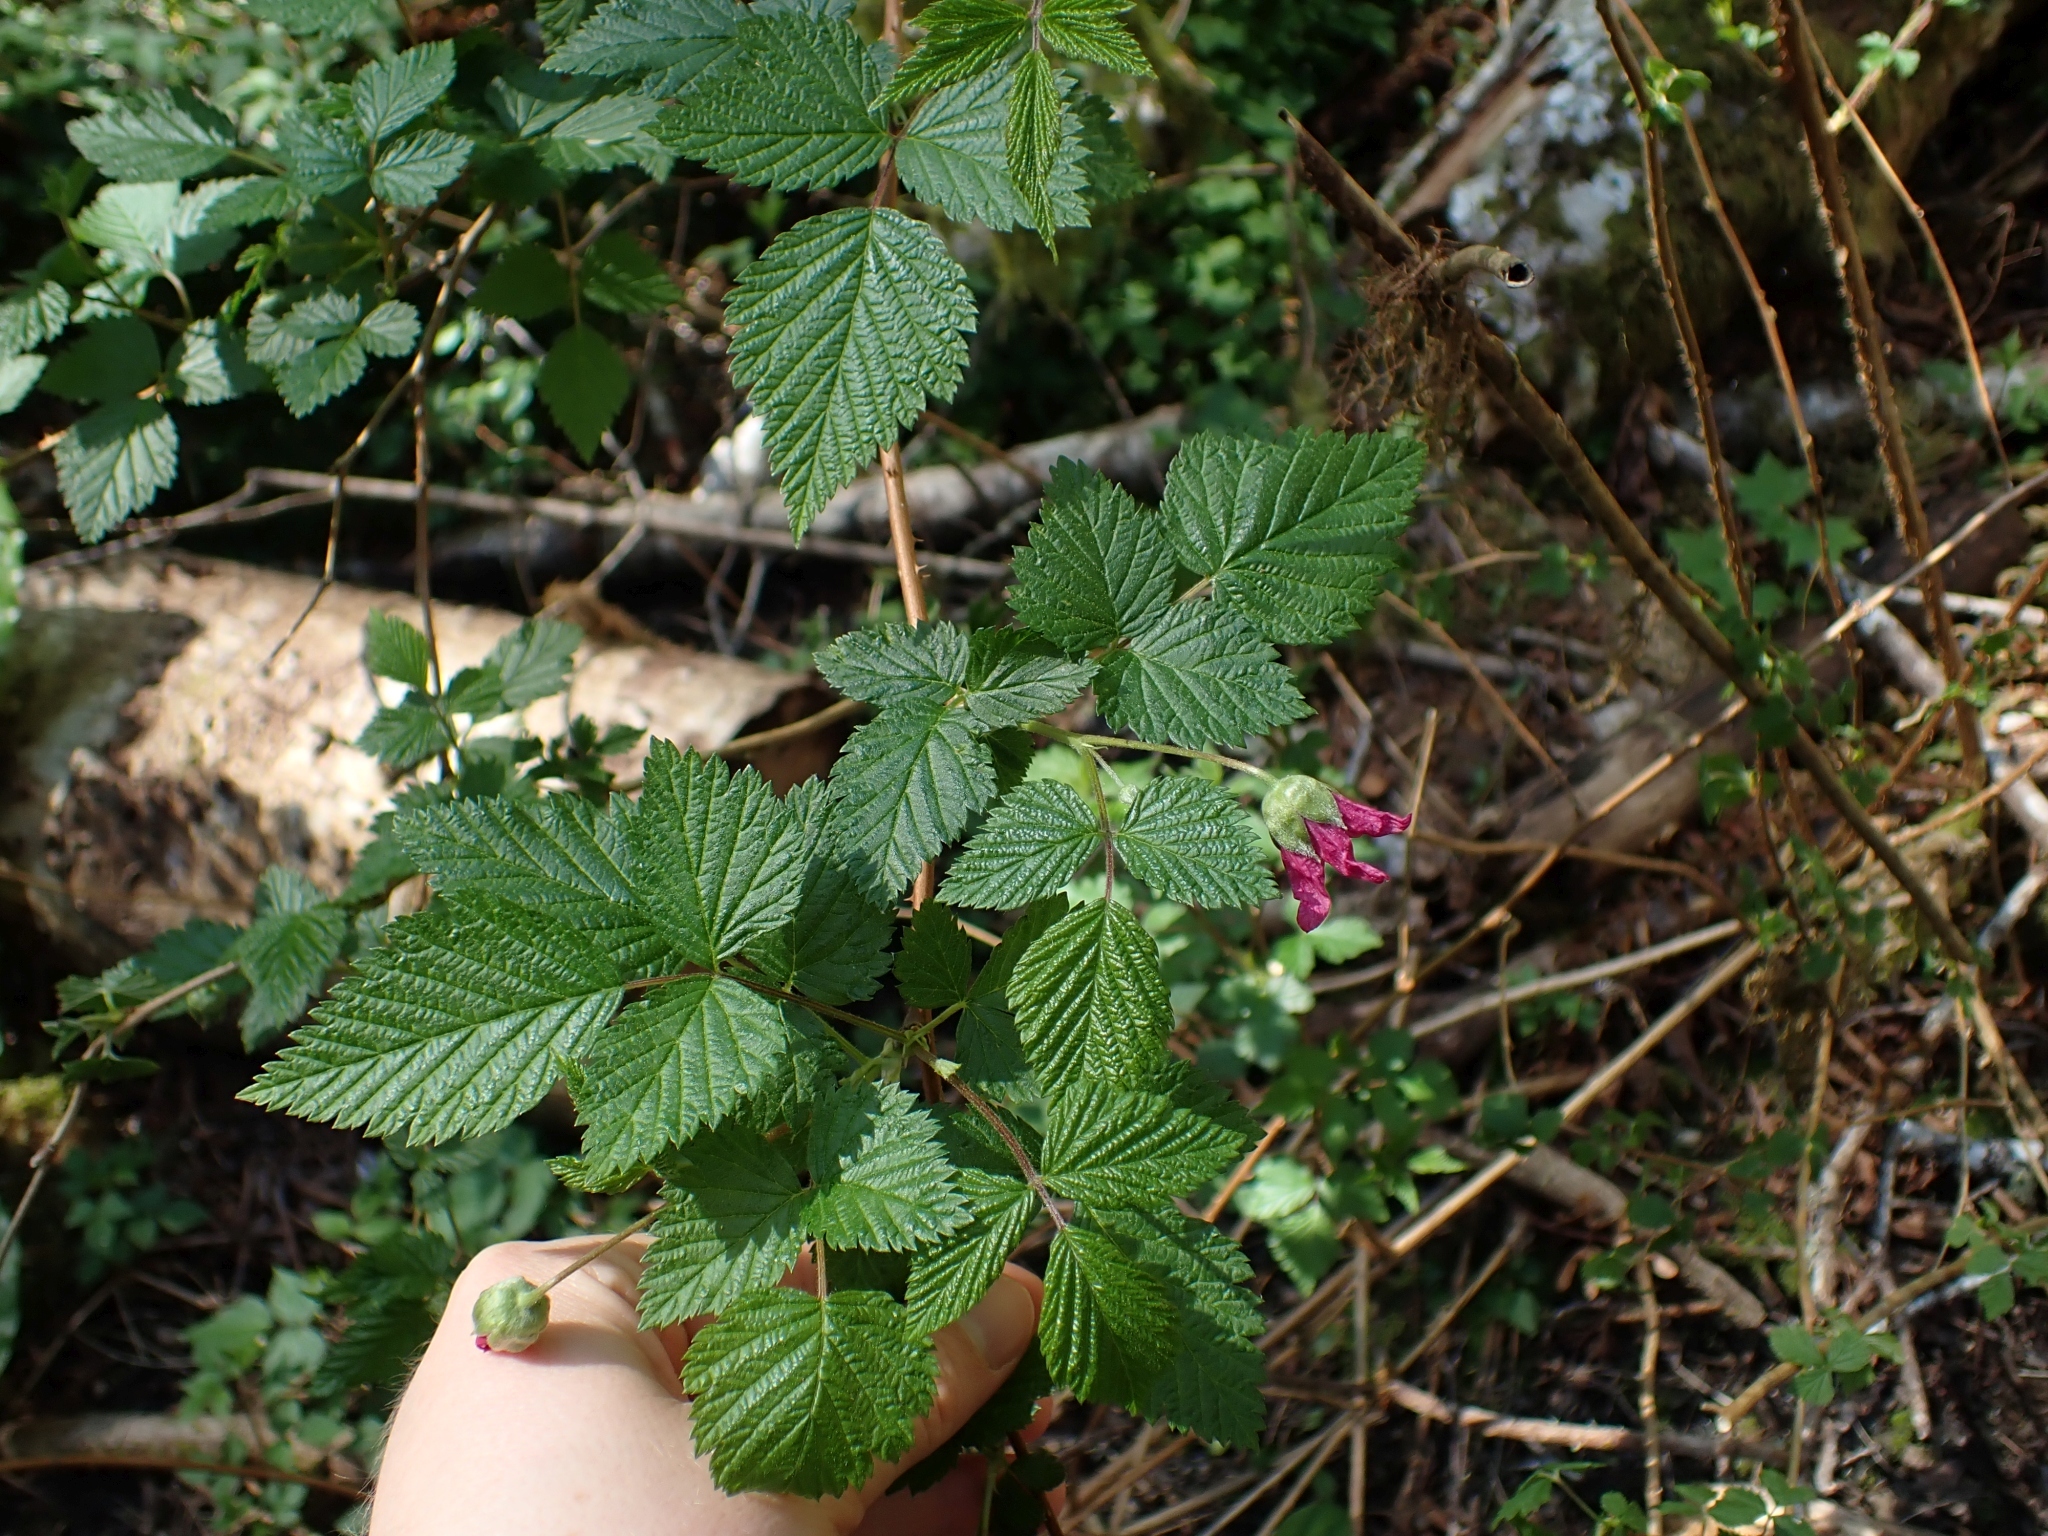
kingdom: Plantae
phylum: Tracheophyta
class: Magnoliopsida
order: Rosales
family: Rosaceae
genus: Rubus
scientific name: Rubus spectabilis
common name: Salmonberry
